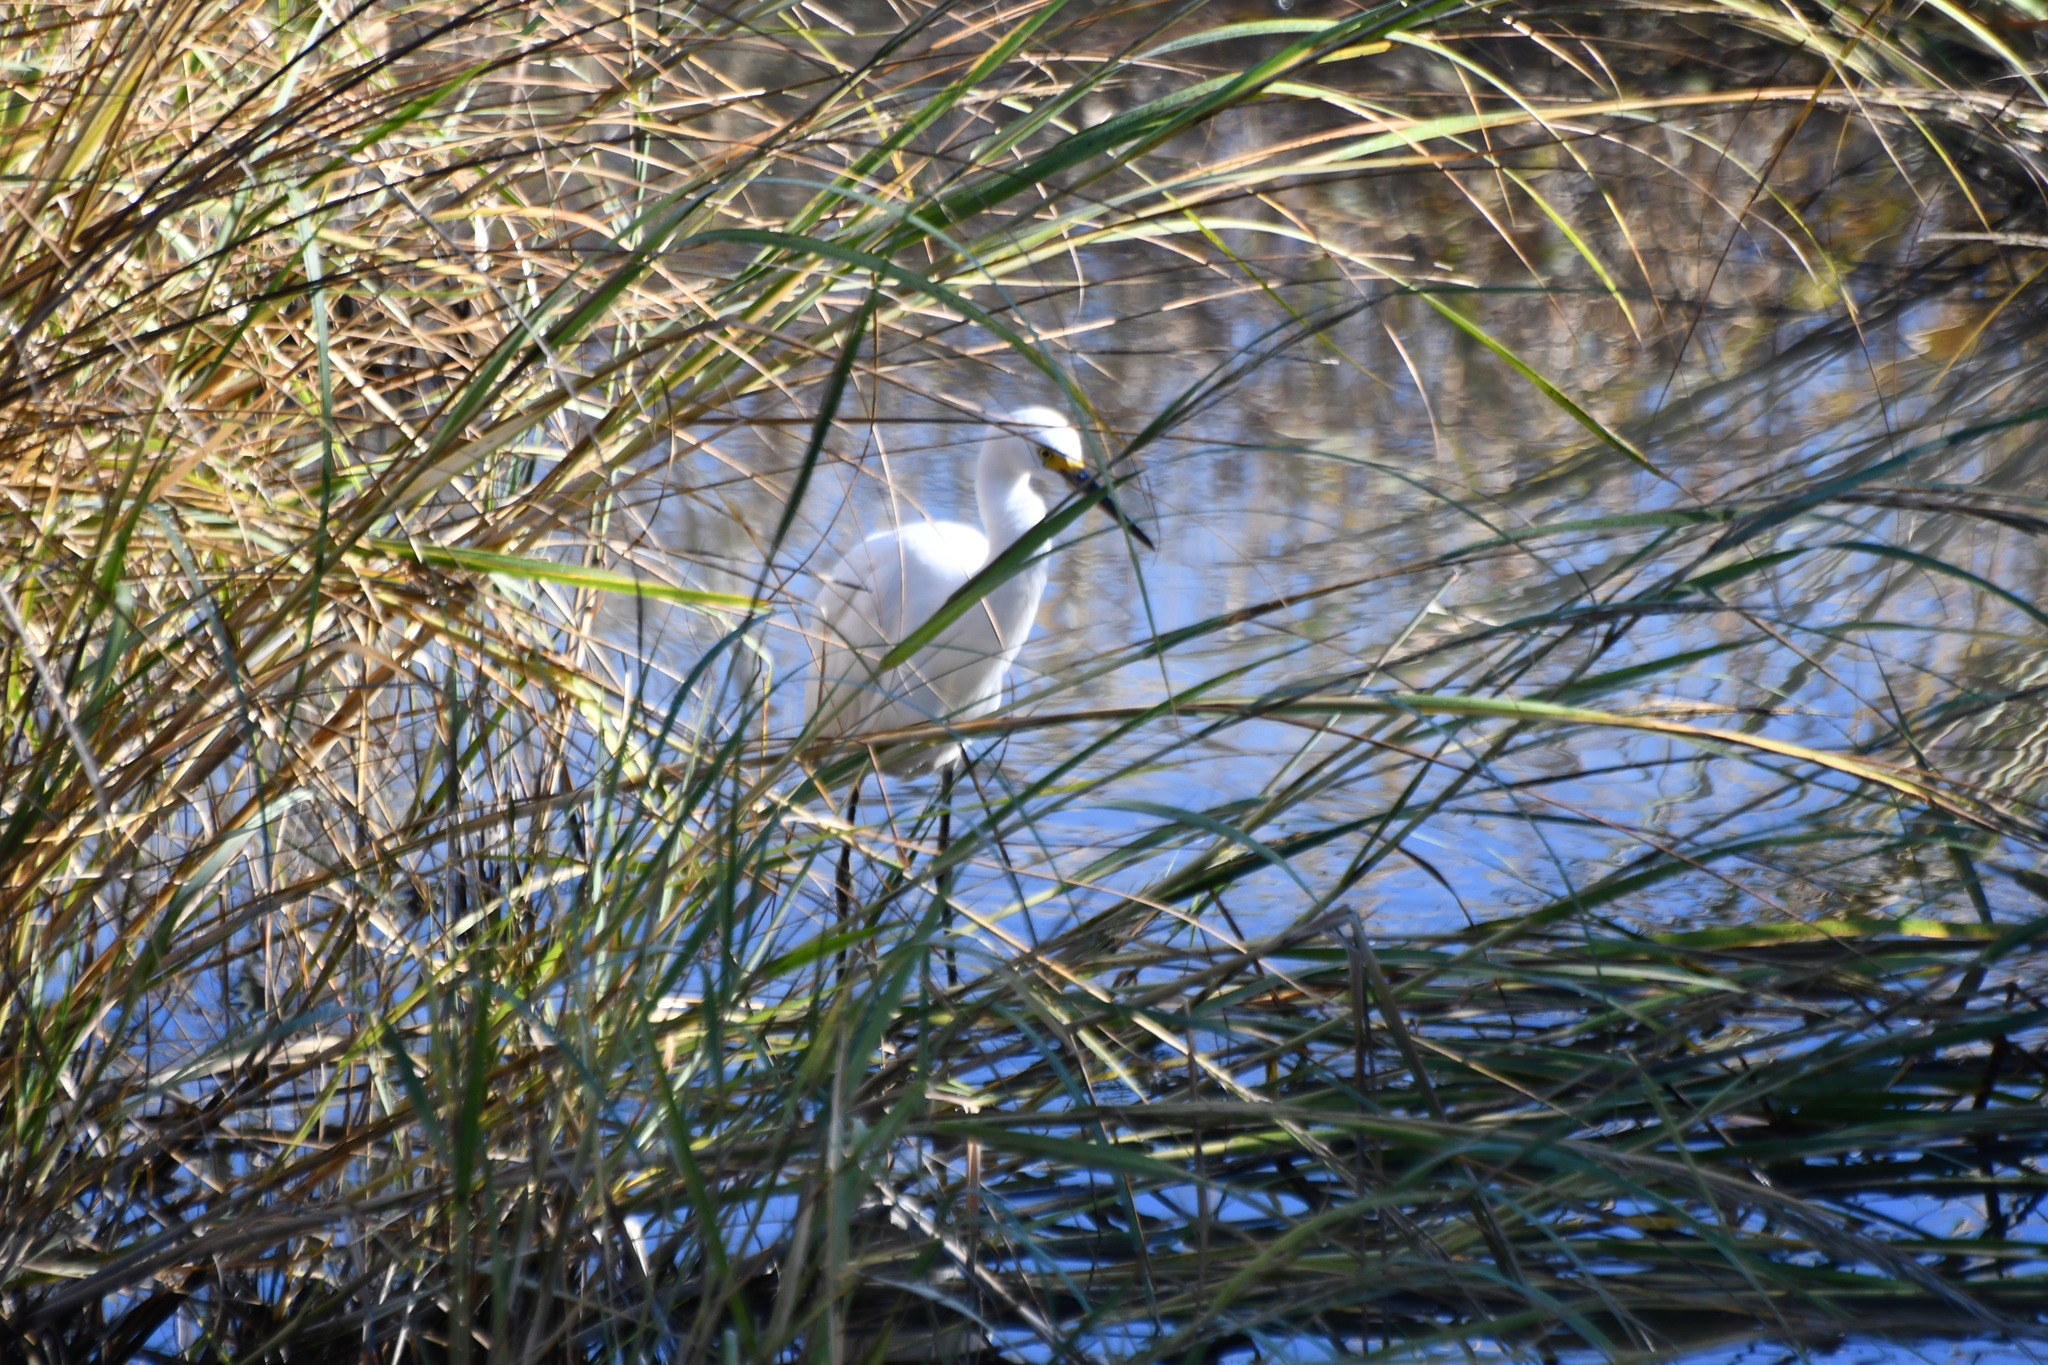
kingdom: Animalia
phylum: Chordata
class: Aves
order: Pelecaniformes
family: Ardeidae
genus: Egretta
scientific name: Egretta thula
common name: Snowy egret
